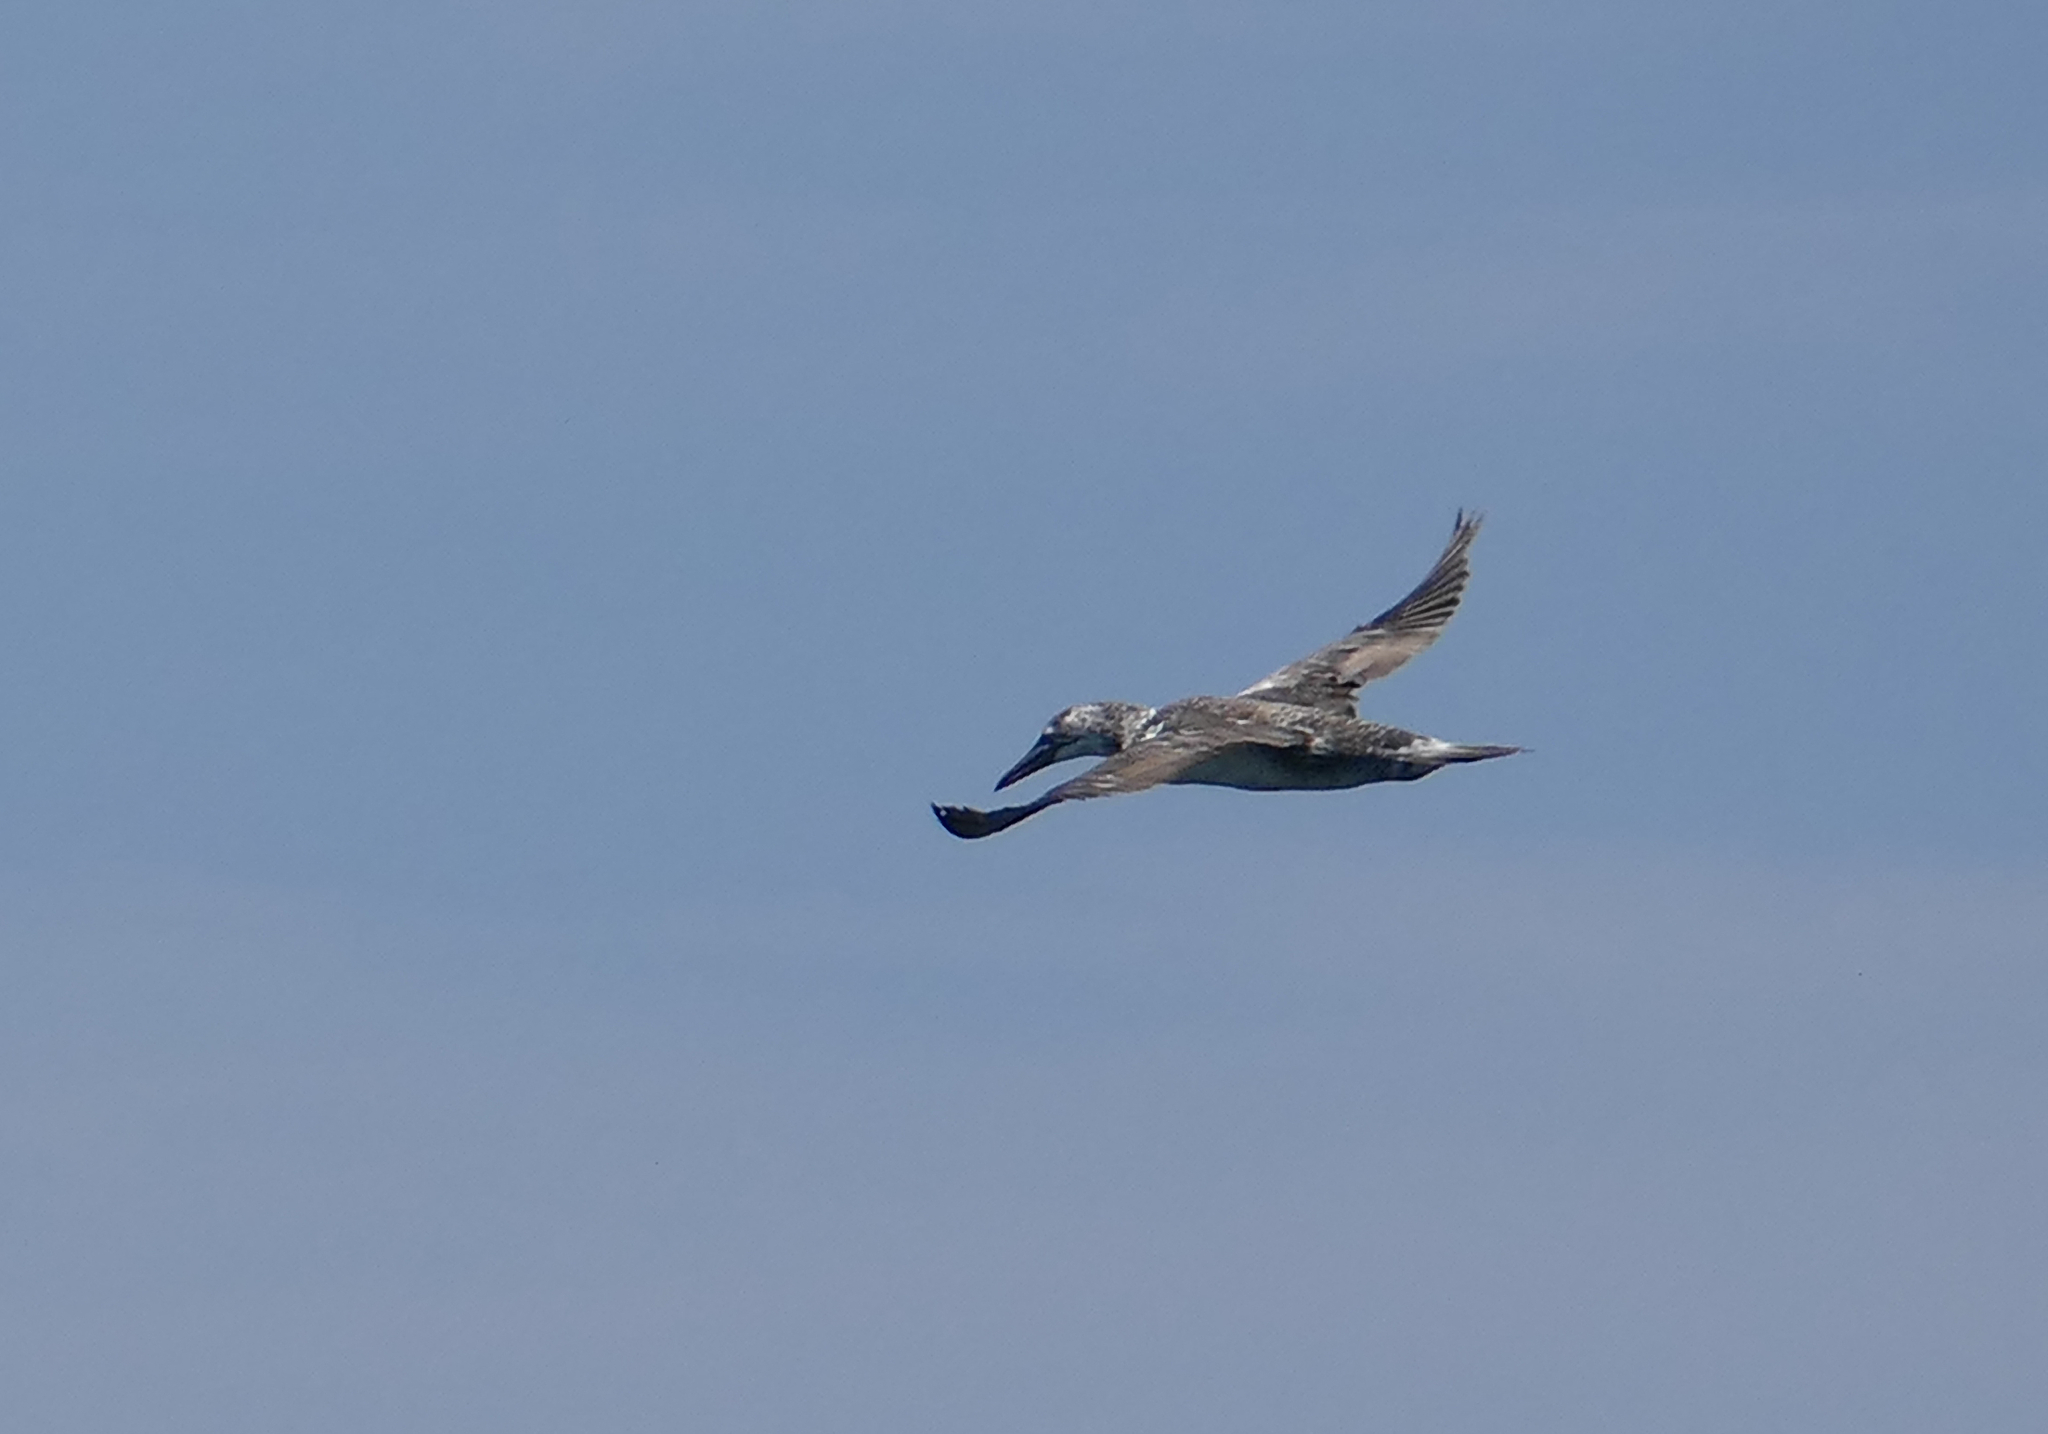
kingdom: Animalia
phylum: Chordata
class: Aves
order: Suliformes
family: Sulidae
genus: Morus
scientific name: Morus bassanus
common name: Northern gannet
